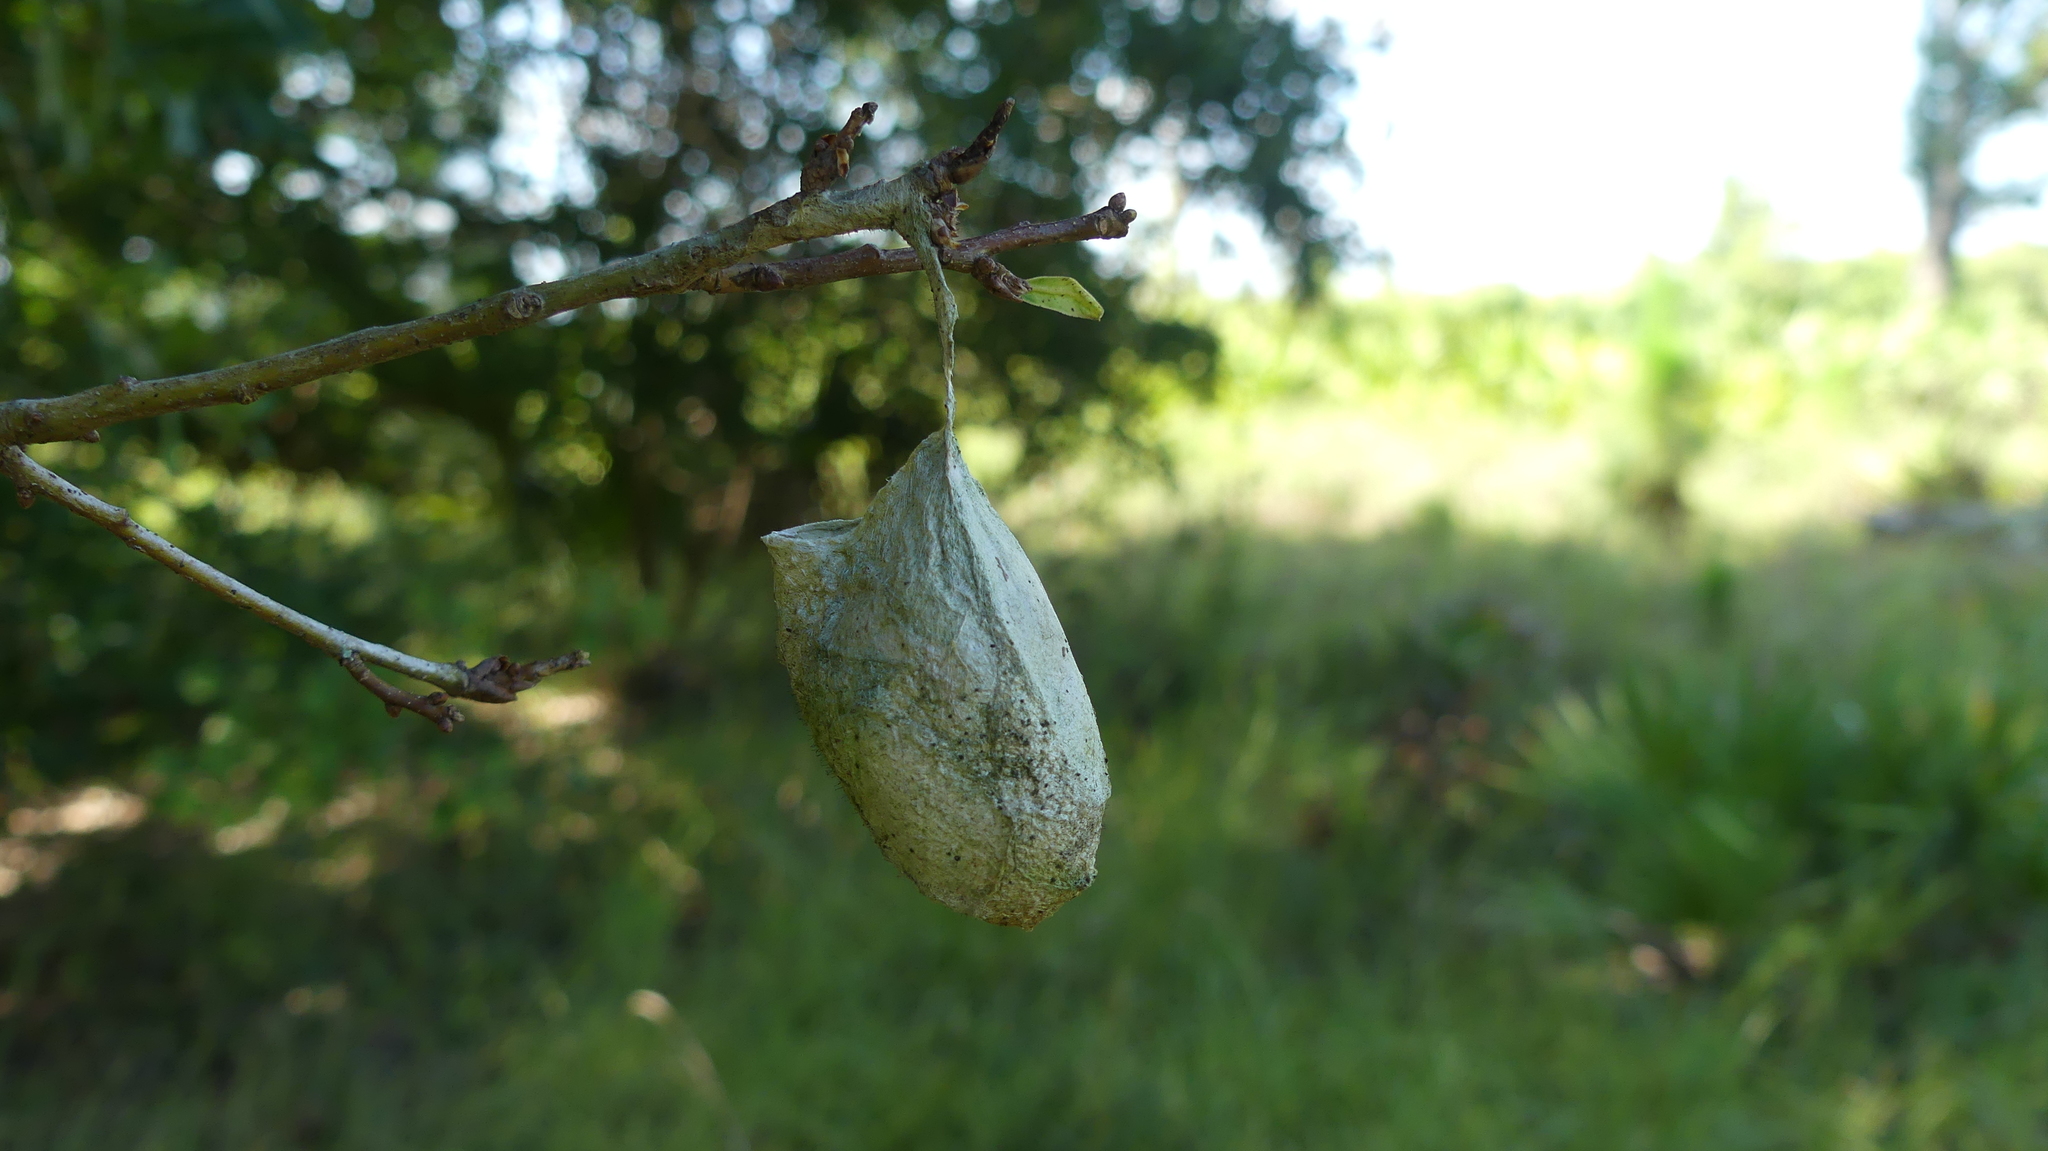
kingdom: Animalia
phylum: Arthropoda
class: Insecta
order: Lepidoptera
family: Saturniidae
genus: Antheraea
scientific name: Antheraea polyphemus
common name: Polyphemus moth
